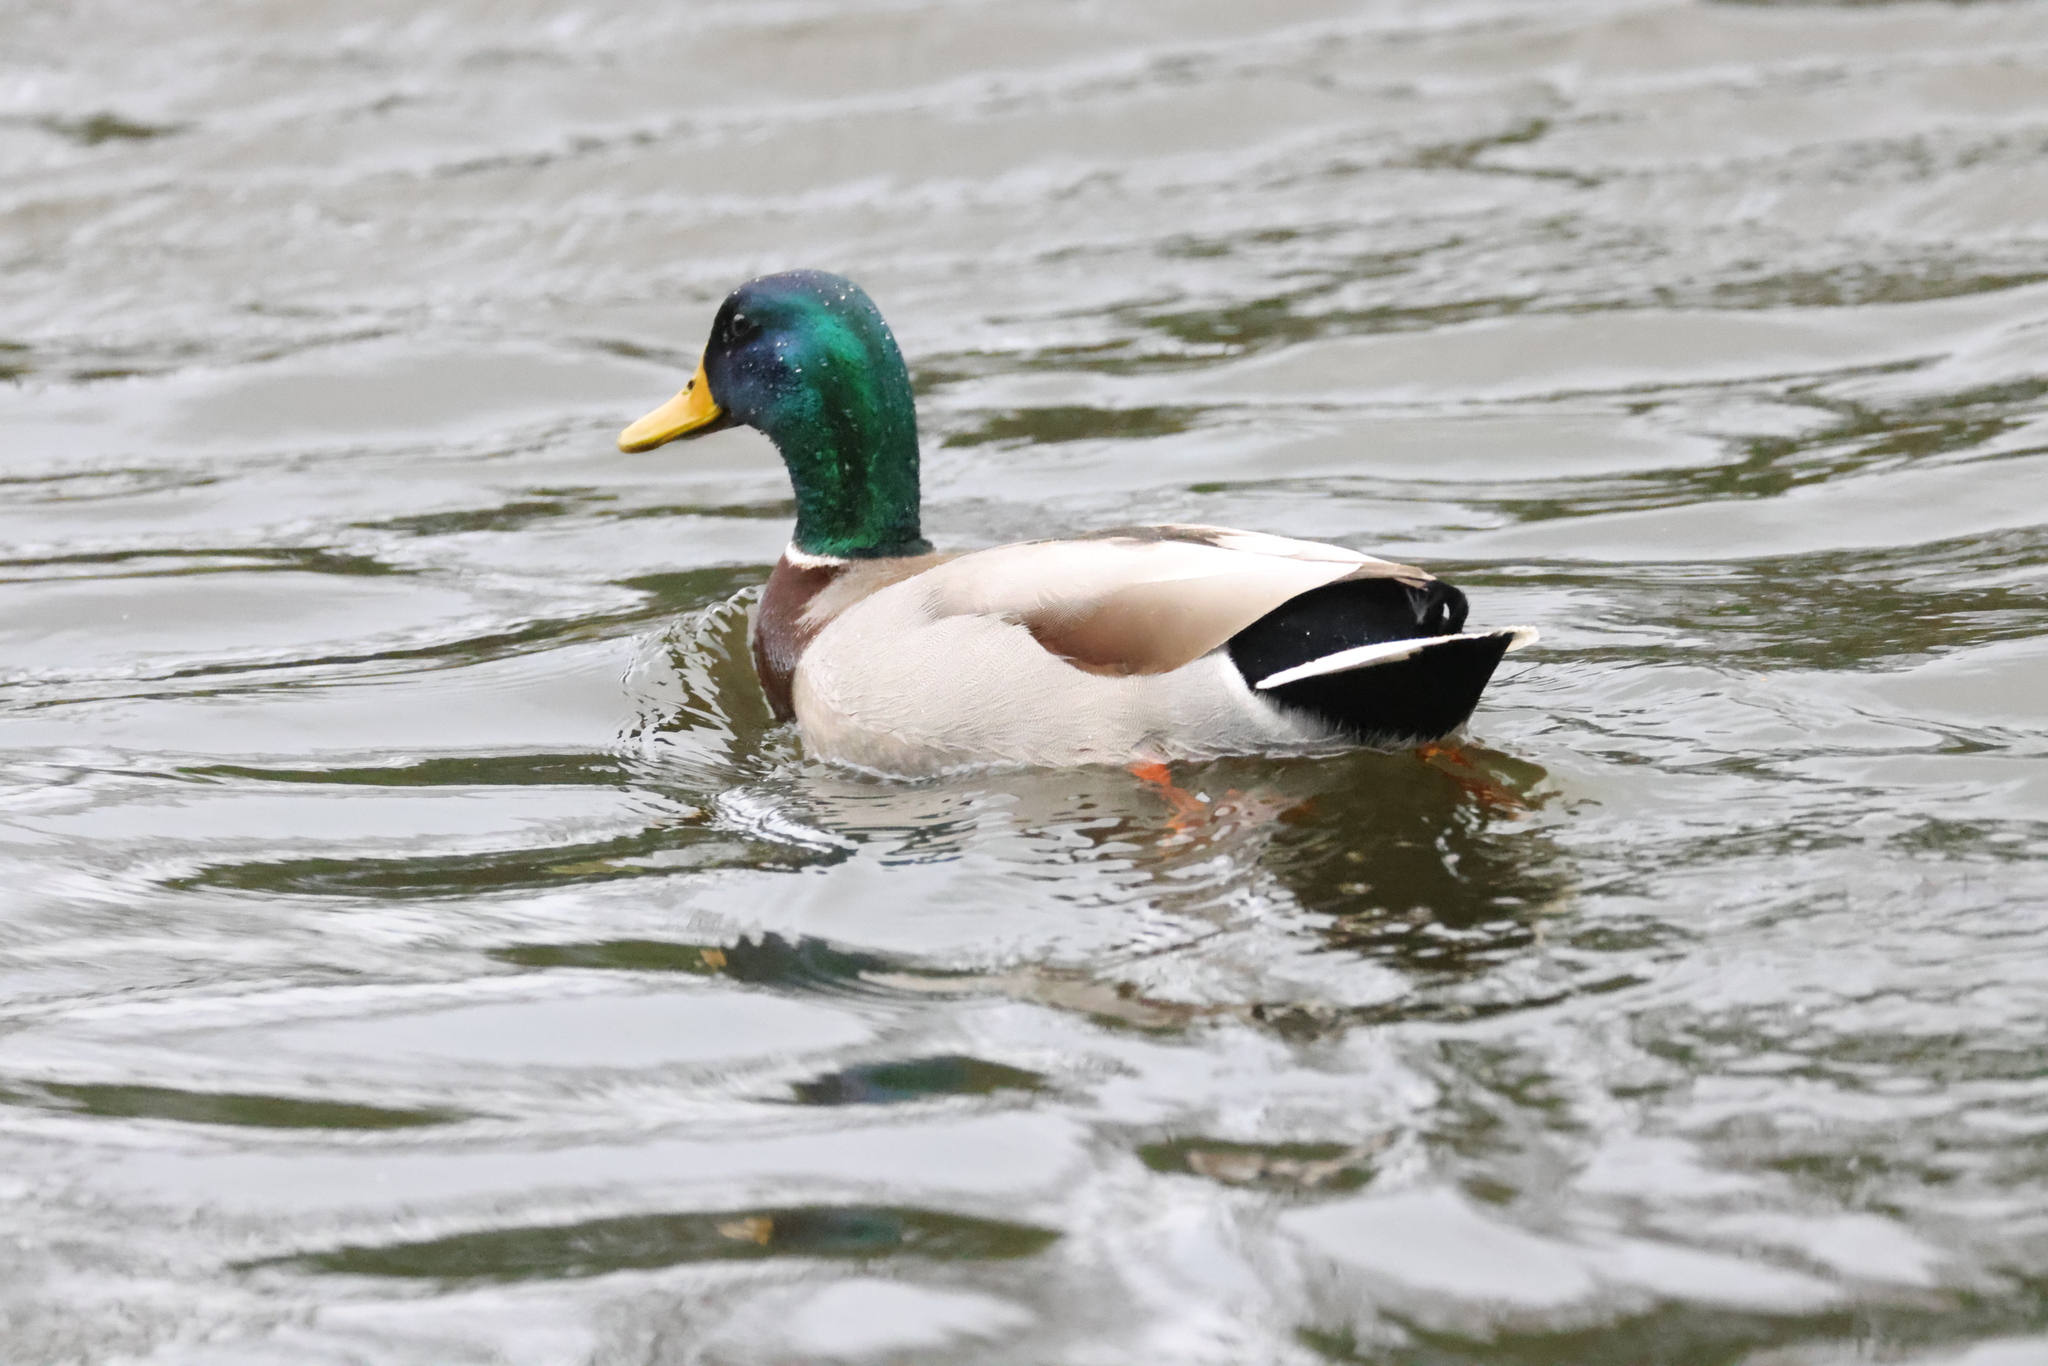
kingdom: Animalia
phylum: Chordata
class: Aves
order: Anseriformes
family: Anatidae
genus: Anas
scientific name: Anas platyrhynchos
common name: Mallard
